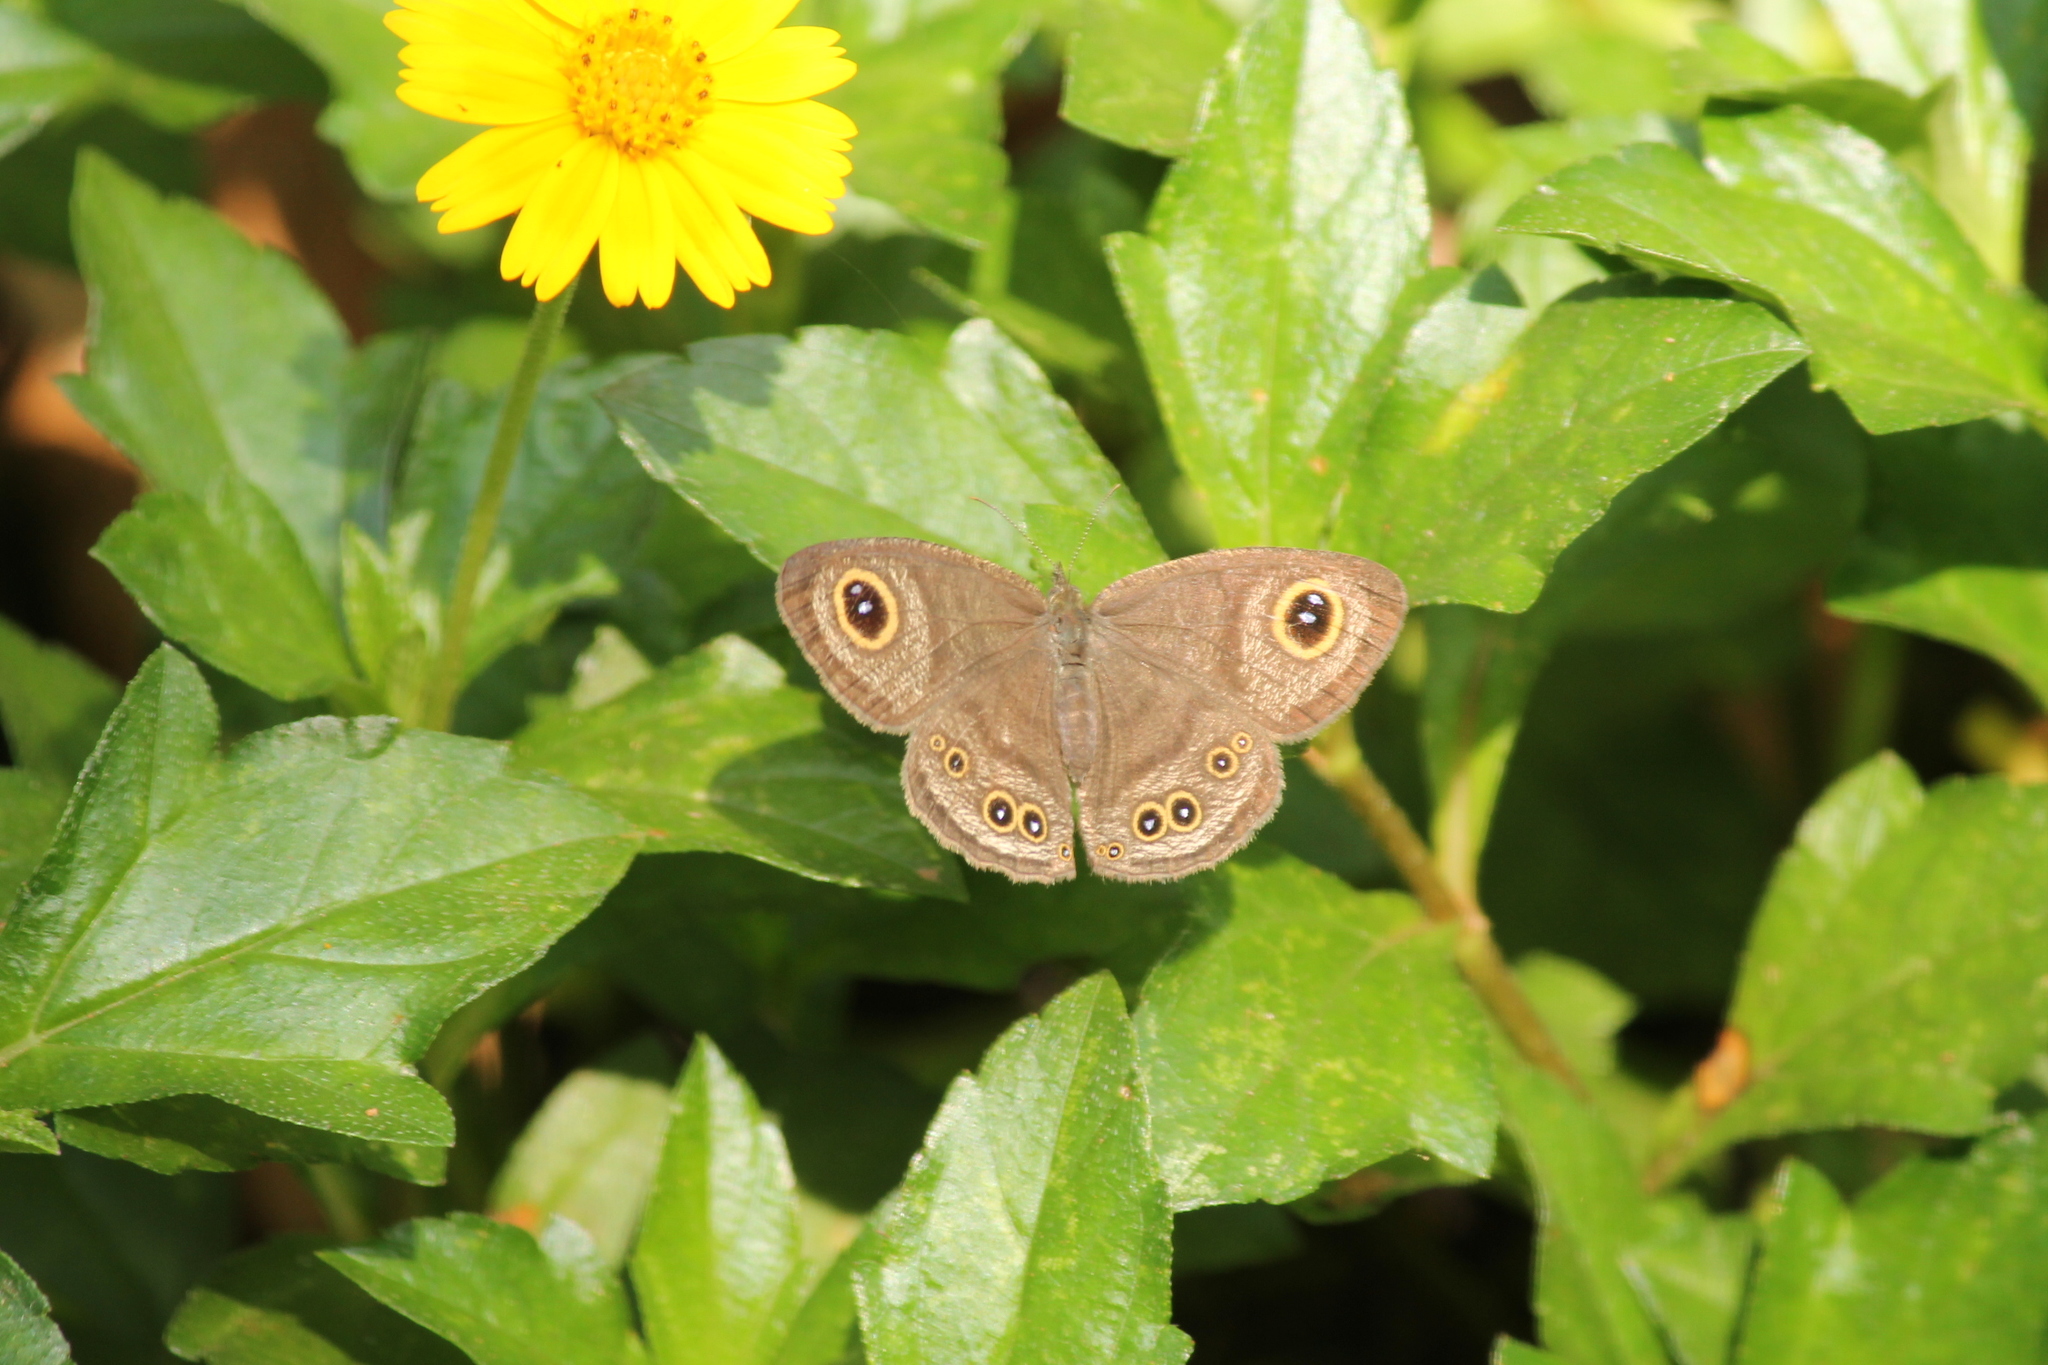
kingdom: Animalia
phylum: Arthropoda
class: Insecta
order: Lepidoptera
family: Nymphalidae
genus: Ypthima
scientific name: Ypthima huebneri
